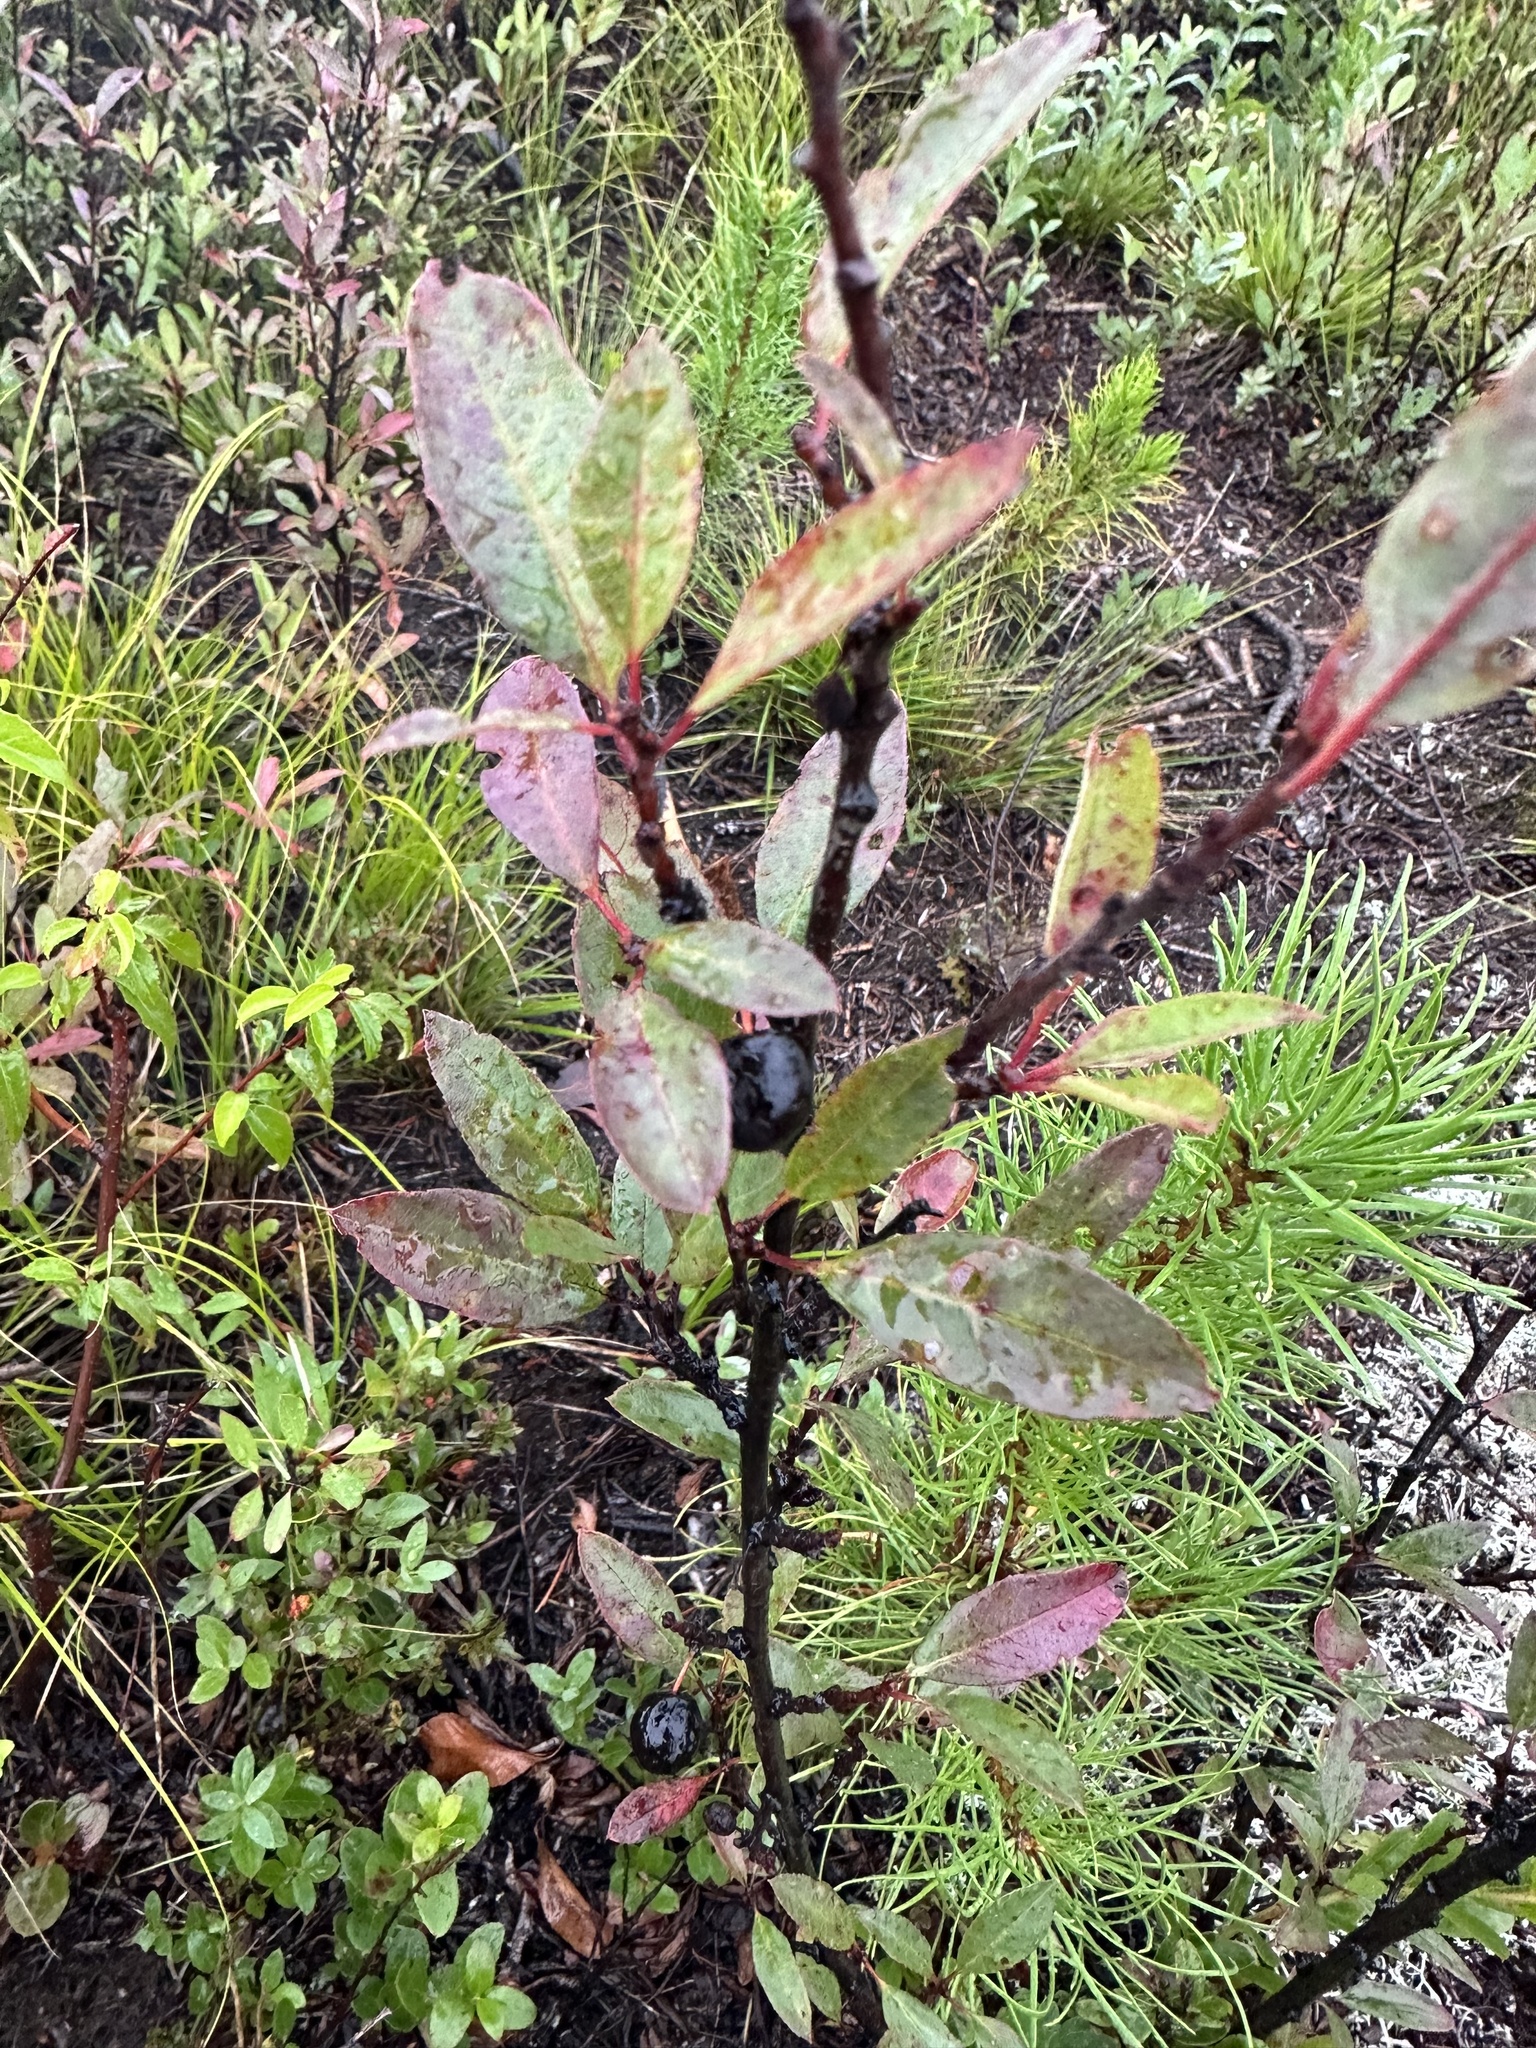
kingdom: Plantae
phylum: Tracheophyta
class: Magnoliopsida
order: Rosales
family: Rosaceae
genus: Prunus
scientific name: Prunus pumila
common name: Dwarf cherry
